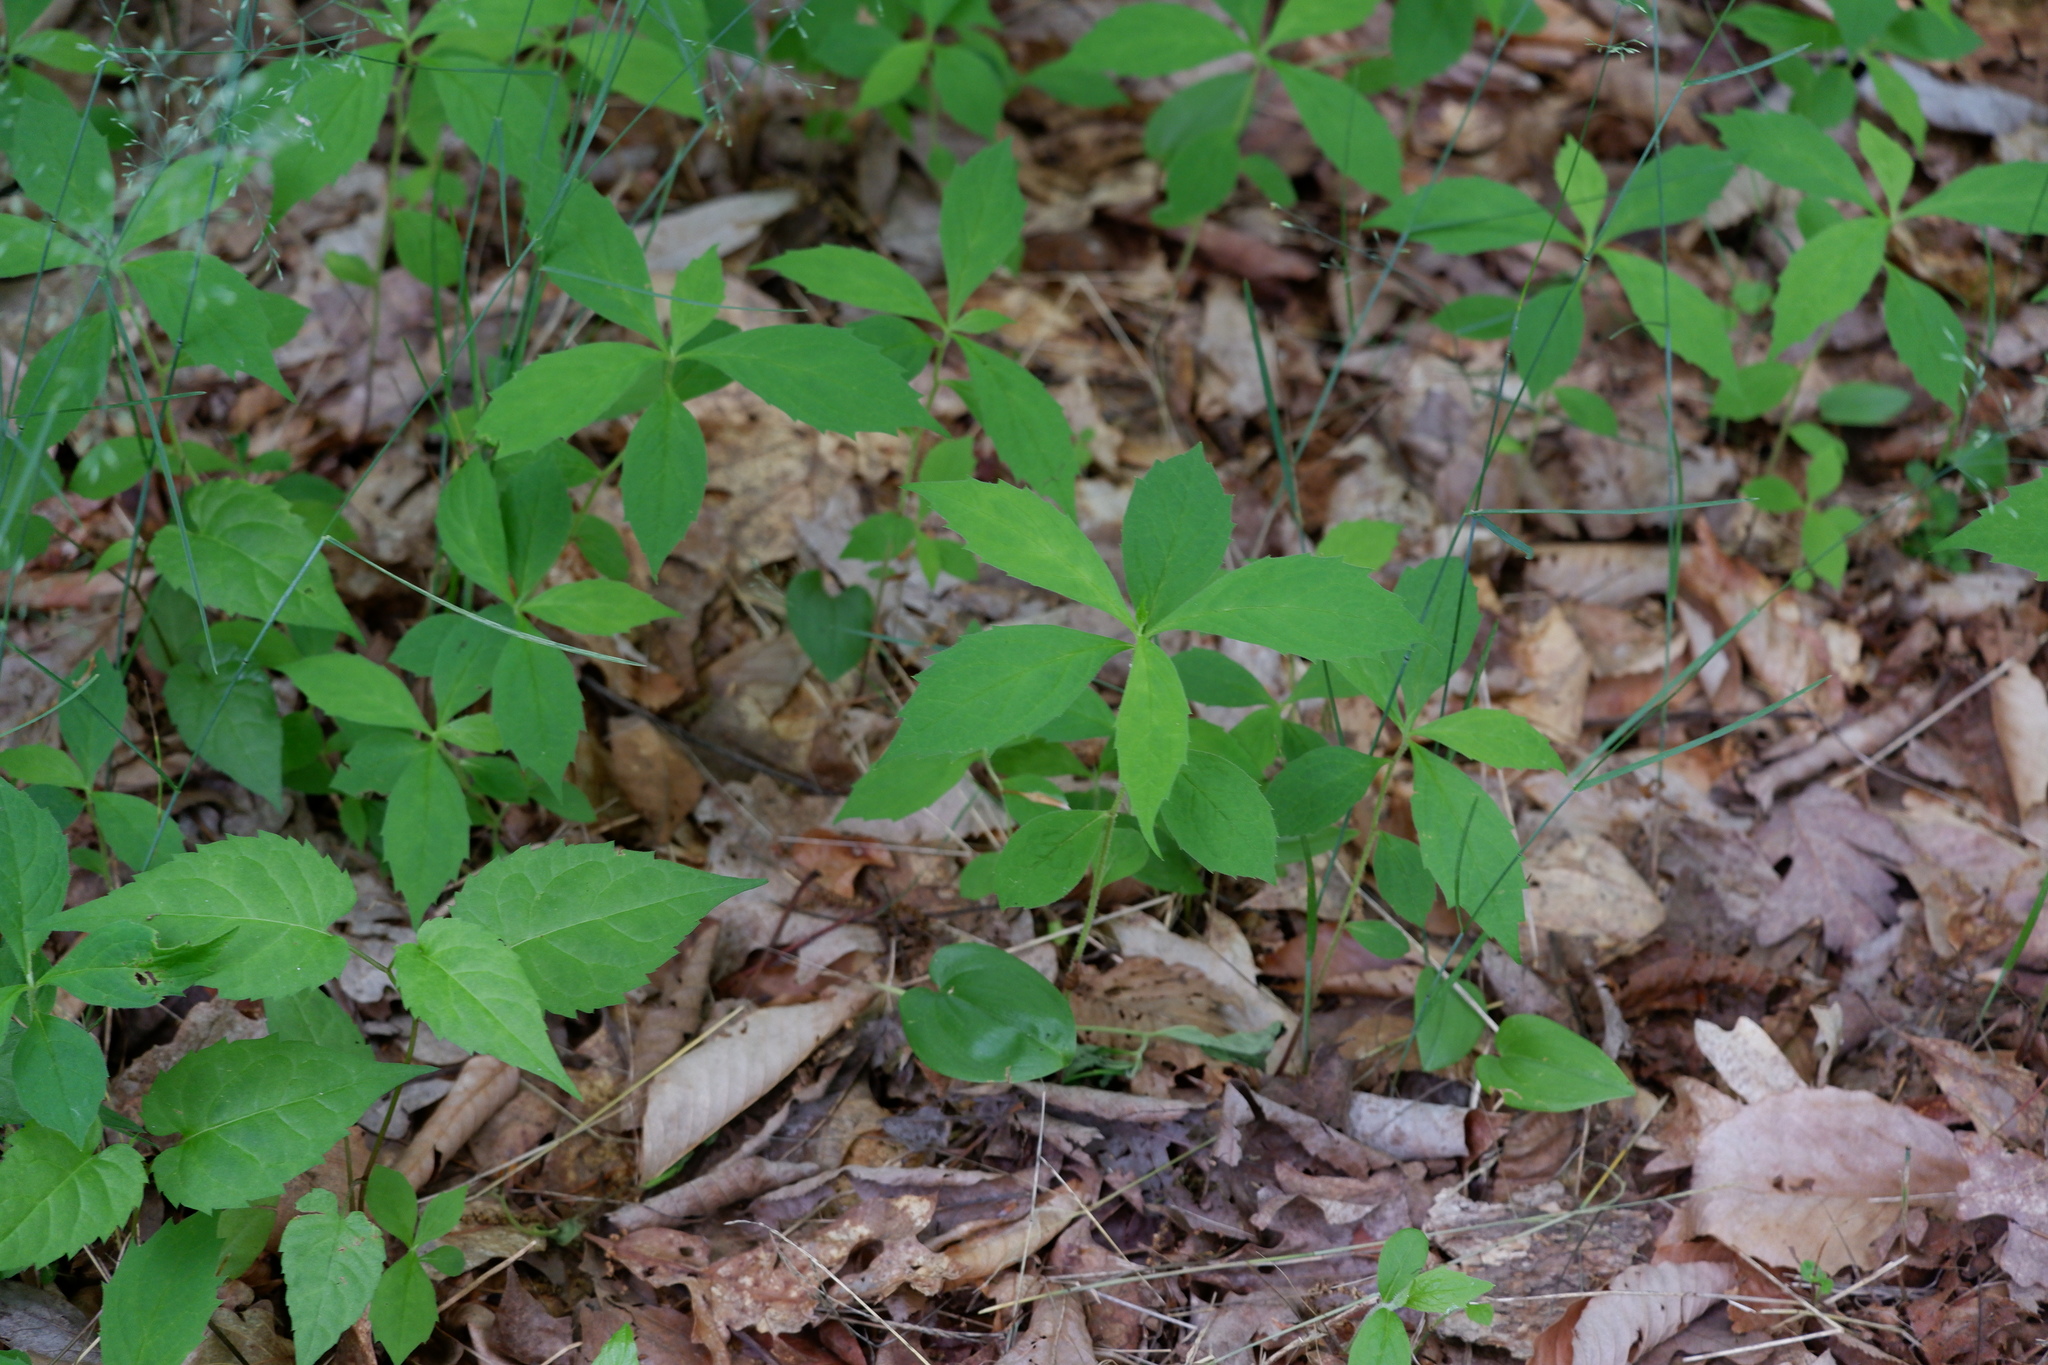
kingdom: Plantae
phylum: Tracheophyta
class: Magnoliopsida
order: Asterales
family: Asteraceae
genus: Oclemena
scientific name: Oclemena acuminata
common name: Mountain aster
